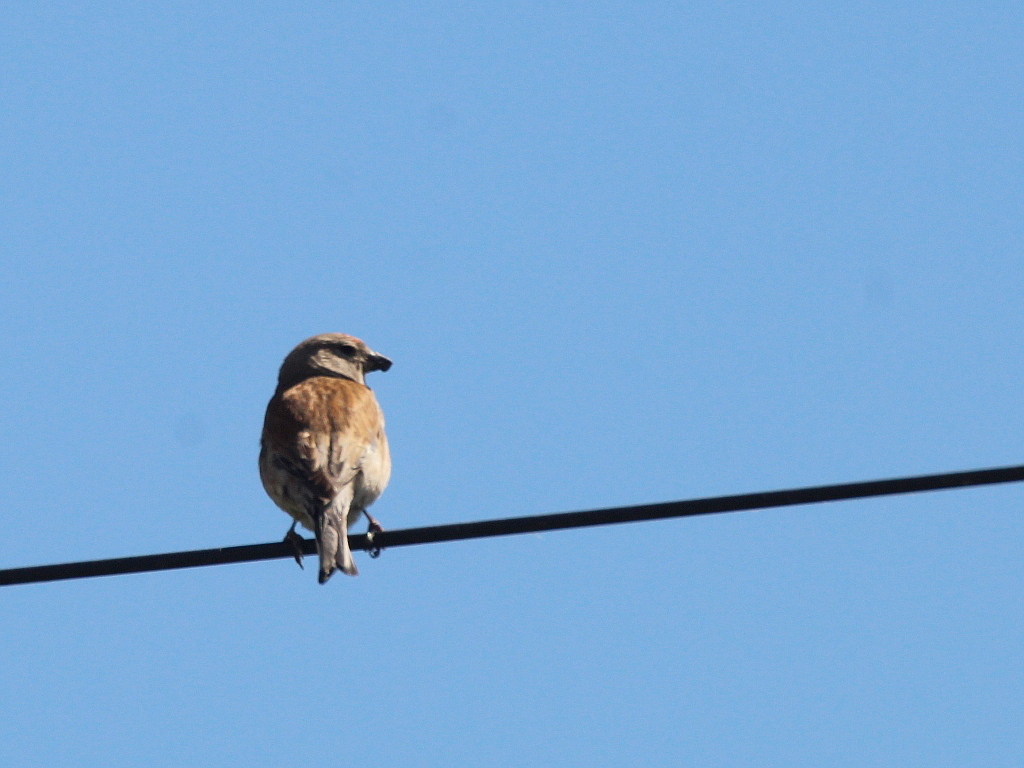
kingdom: Animalia
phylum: Chordata
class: Aves
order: Passeriformes
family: Fringillidae
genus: Linaria
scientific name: Linaria cannabina
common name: Common linnet
